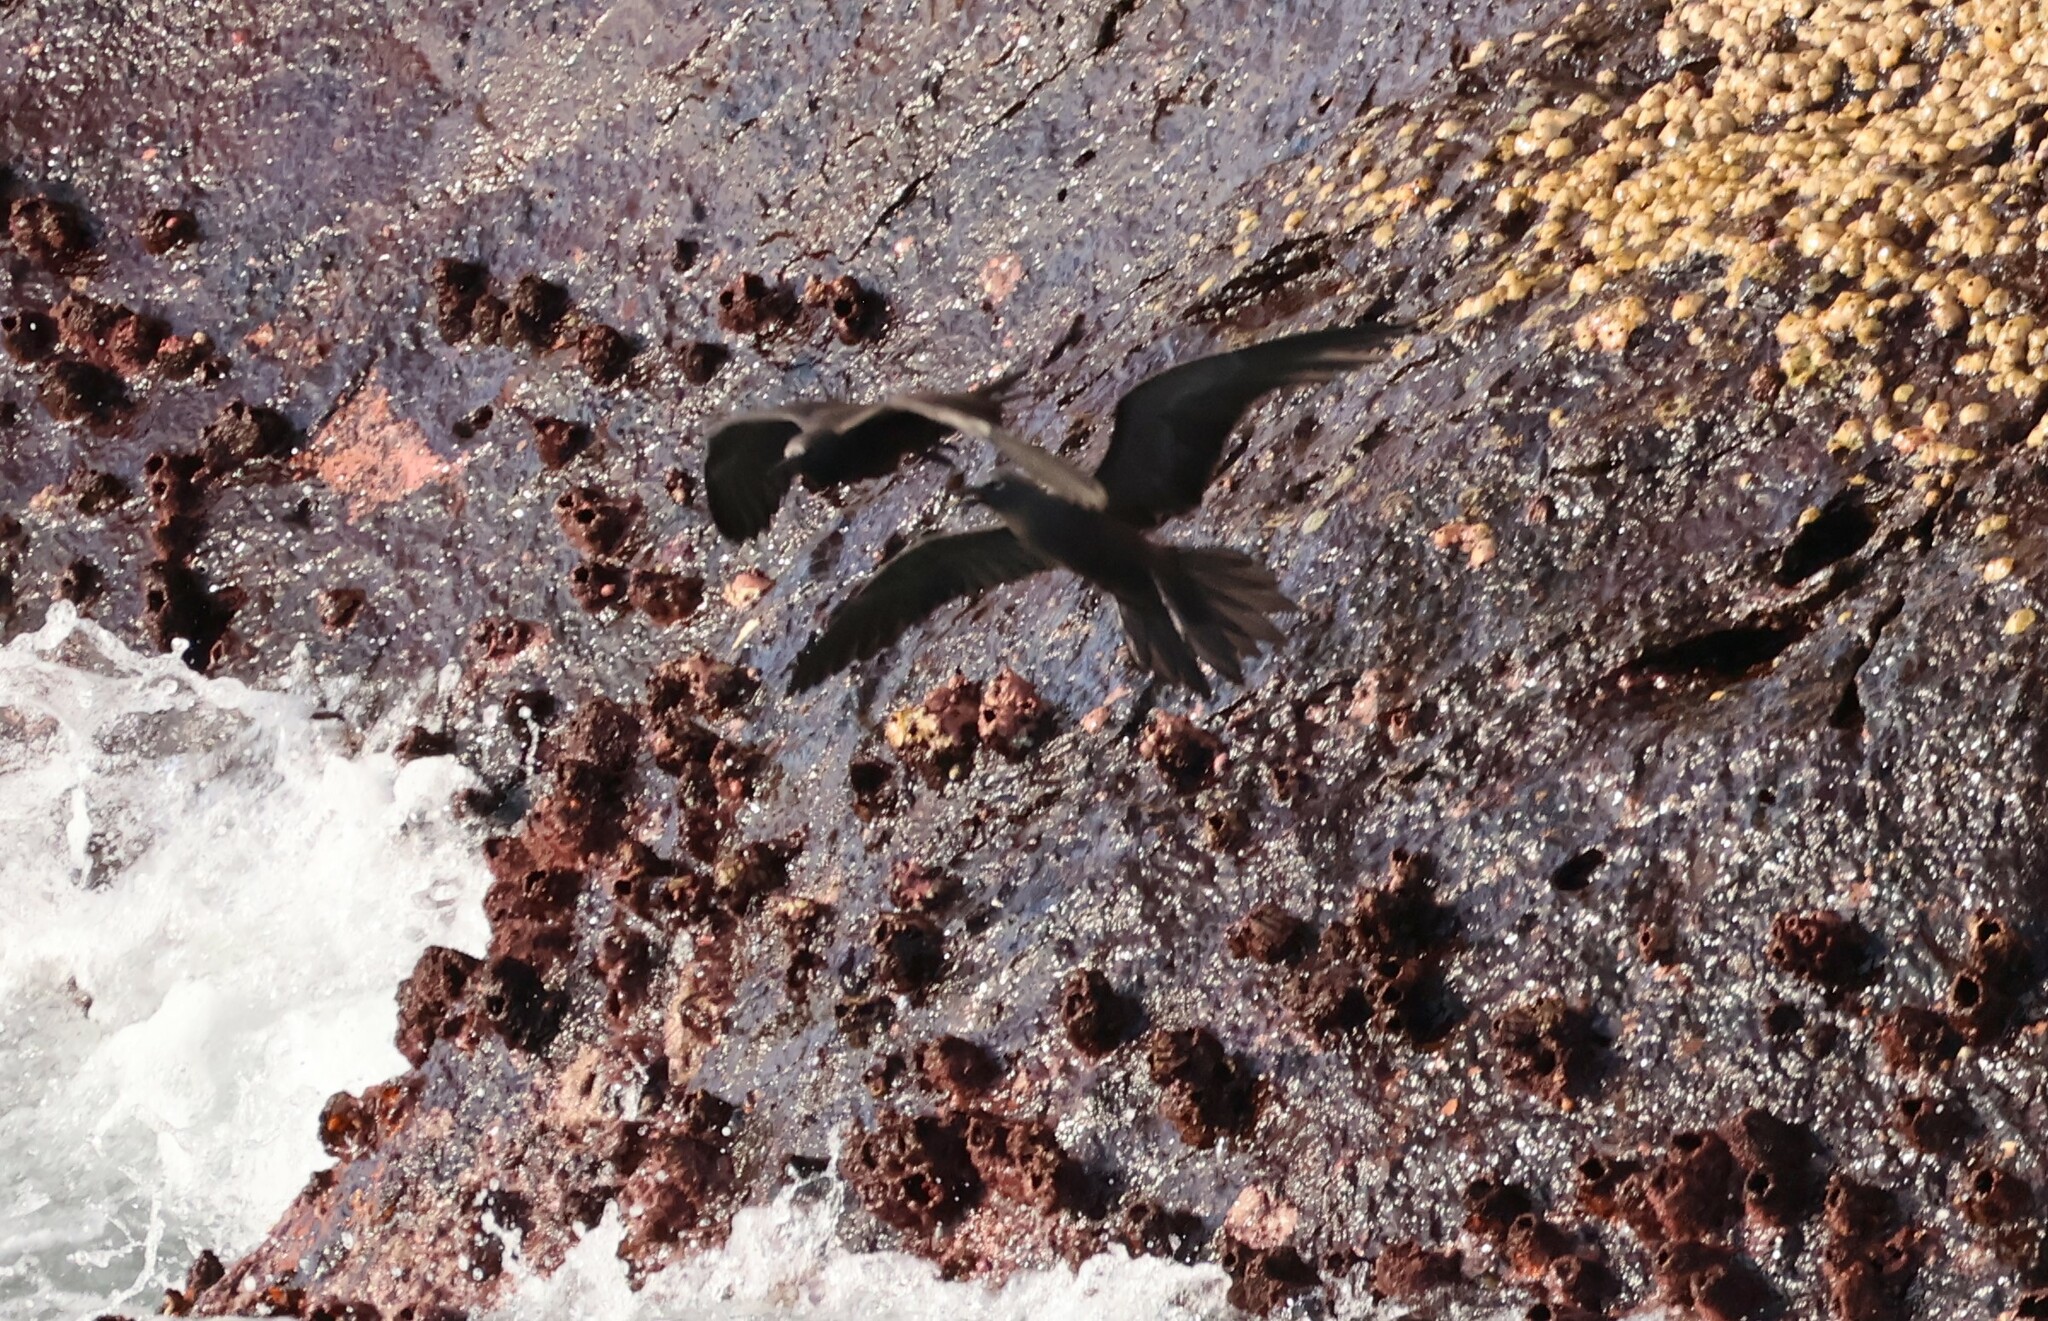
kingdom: Animalia
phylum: Chordata
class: Aves
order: Charadriiformes
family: Laridae
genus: Anous
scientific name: Anous stolidus
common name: Brown noddy
